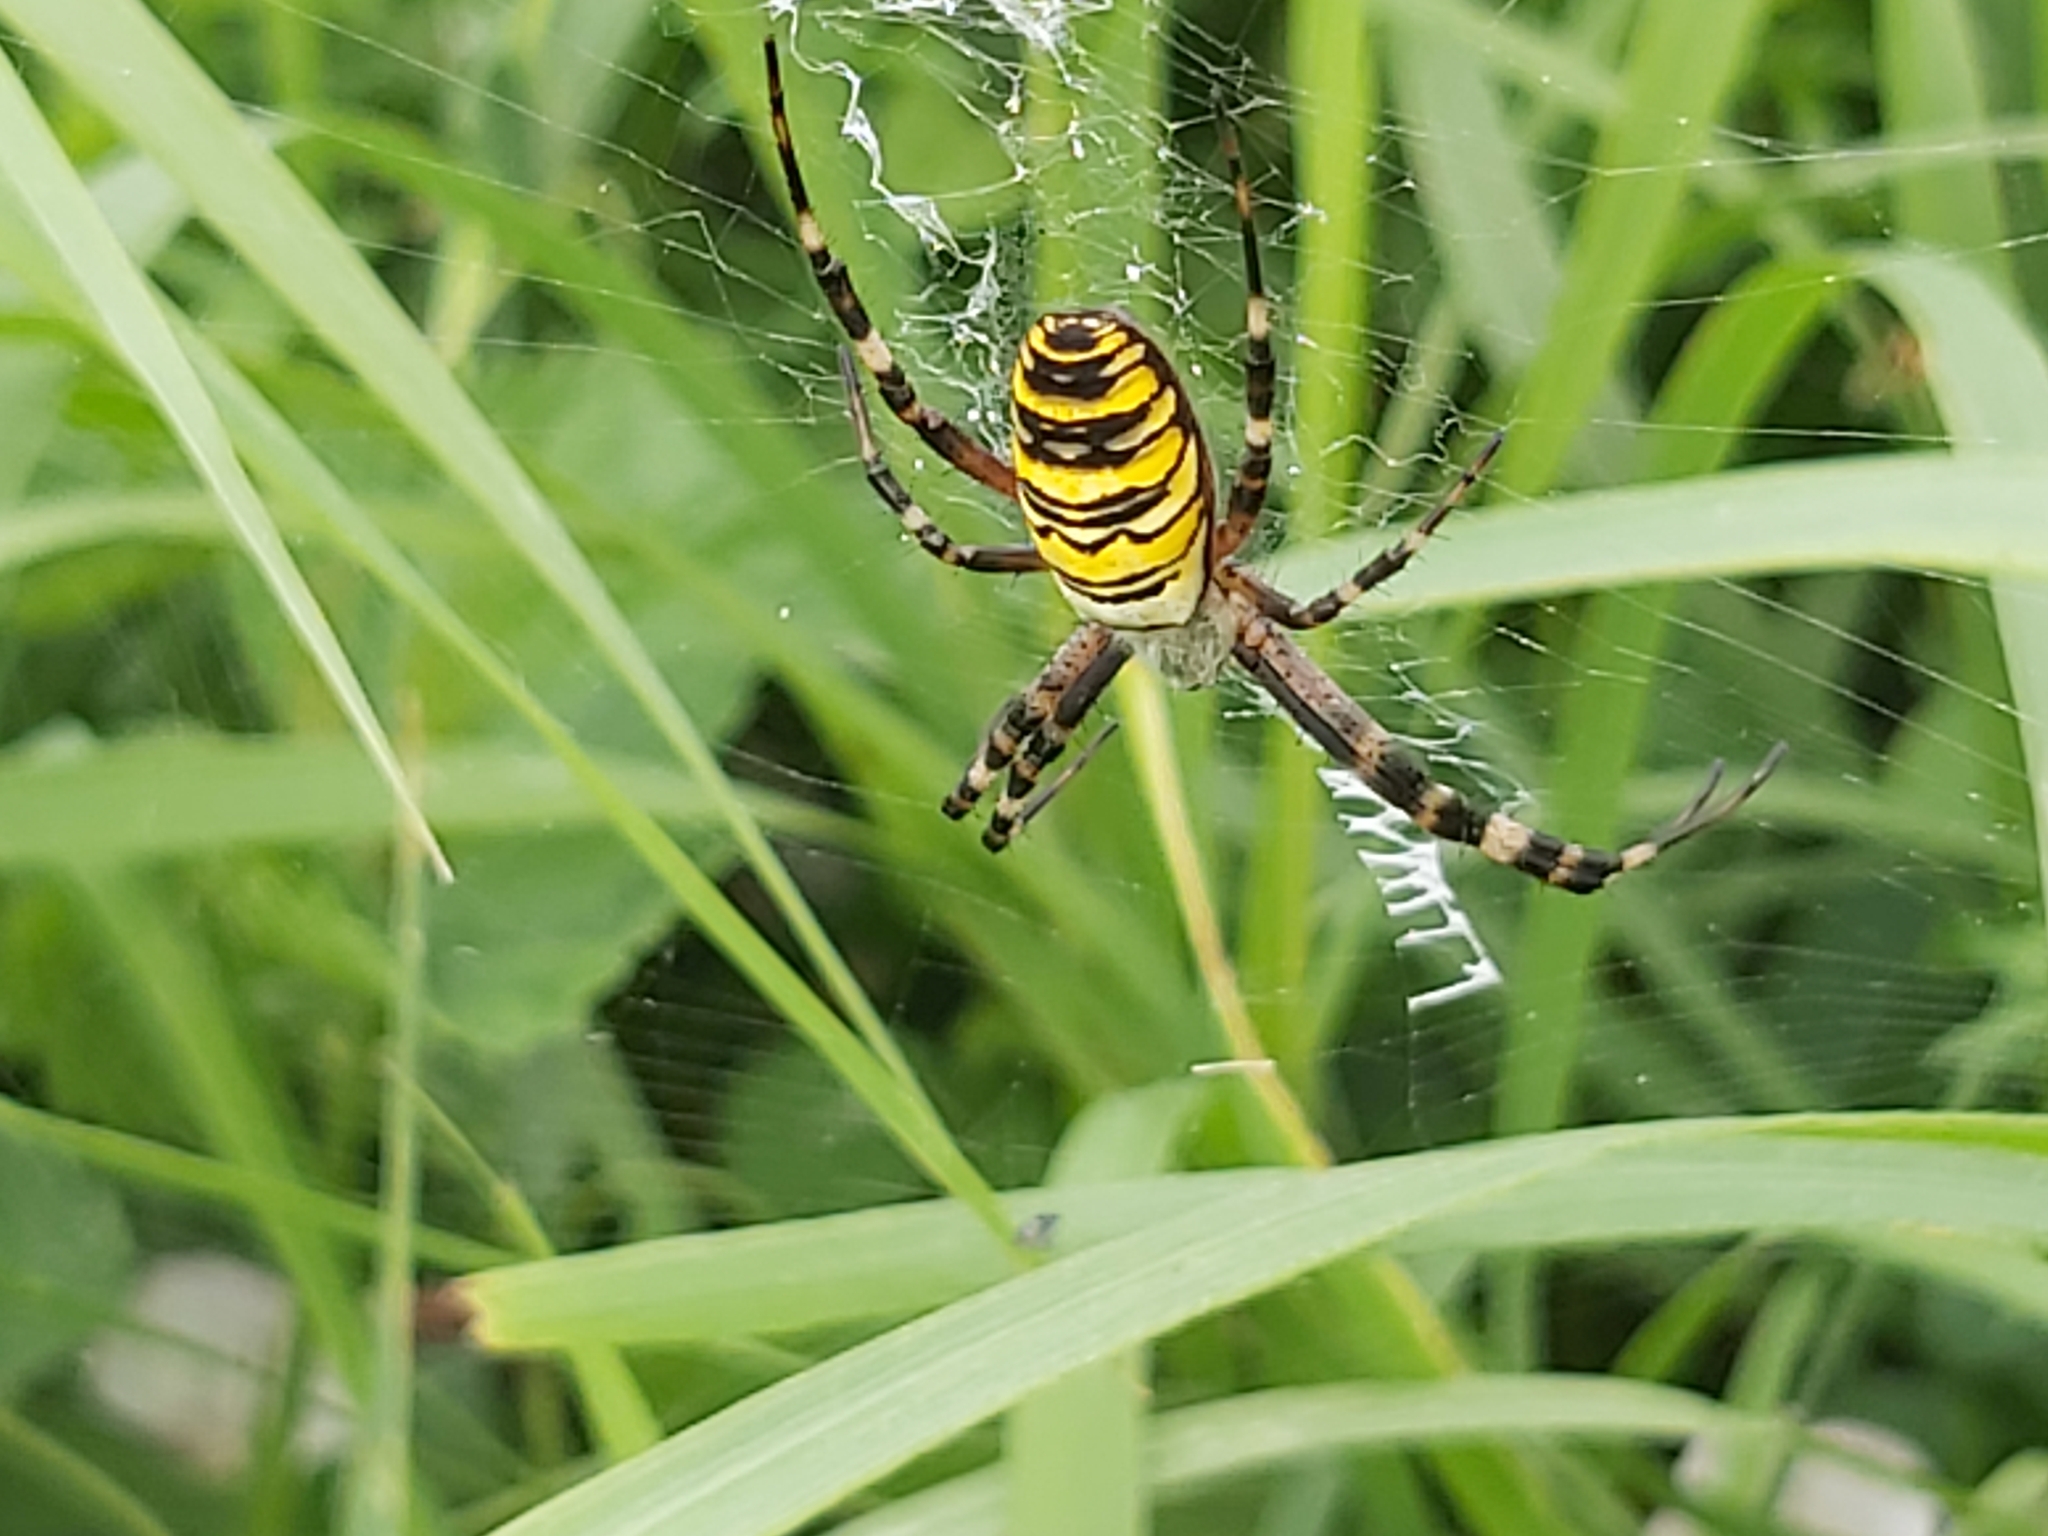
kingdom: Animalia
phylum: Arthropoda
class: Arachnida
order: Araneae
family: Araneidae
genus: Argiope
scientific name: Argiope bruennichi
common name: Wasp spider
